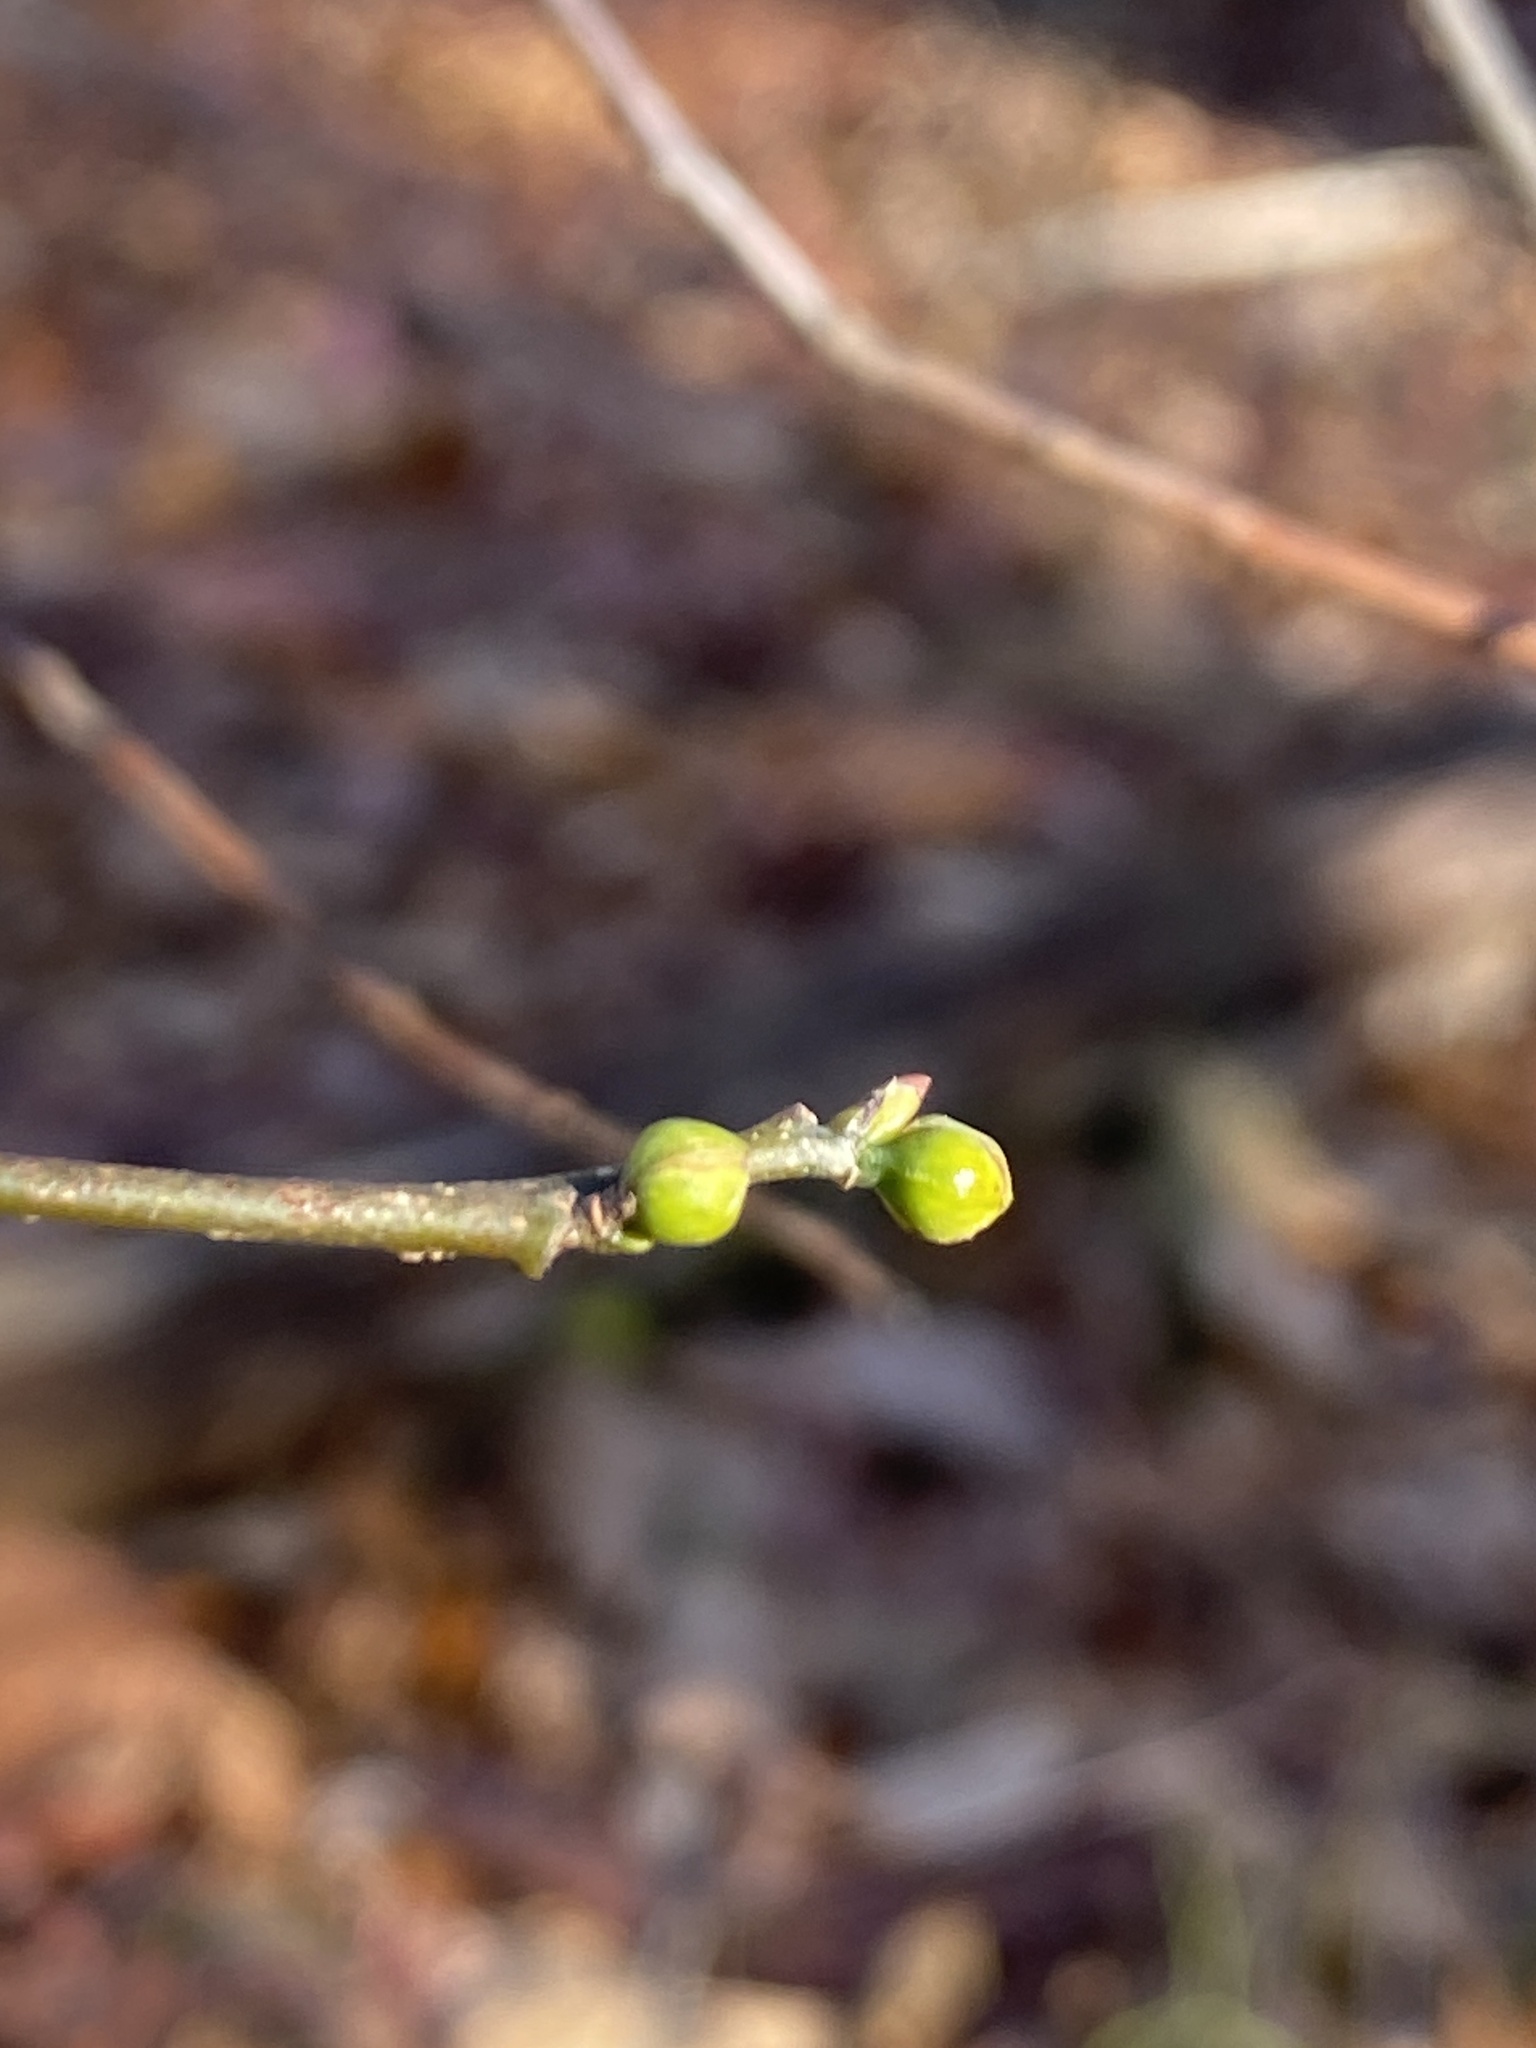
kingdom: Plantae
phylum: Tracheophyta
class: Magnoliopsida
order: Laurales
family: Lauraceae
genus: Lindera
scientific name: Lindera benzoin
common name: Spicebush
